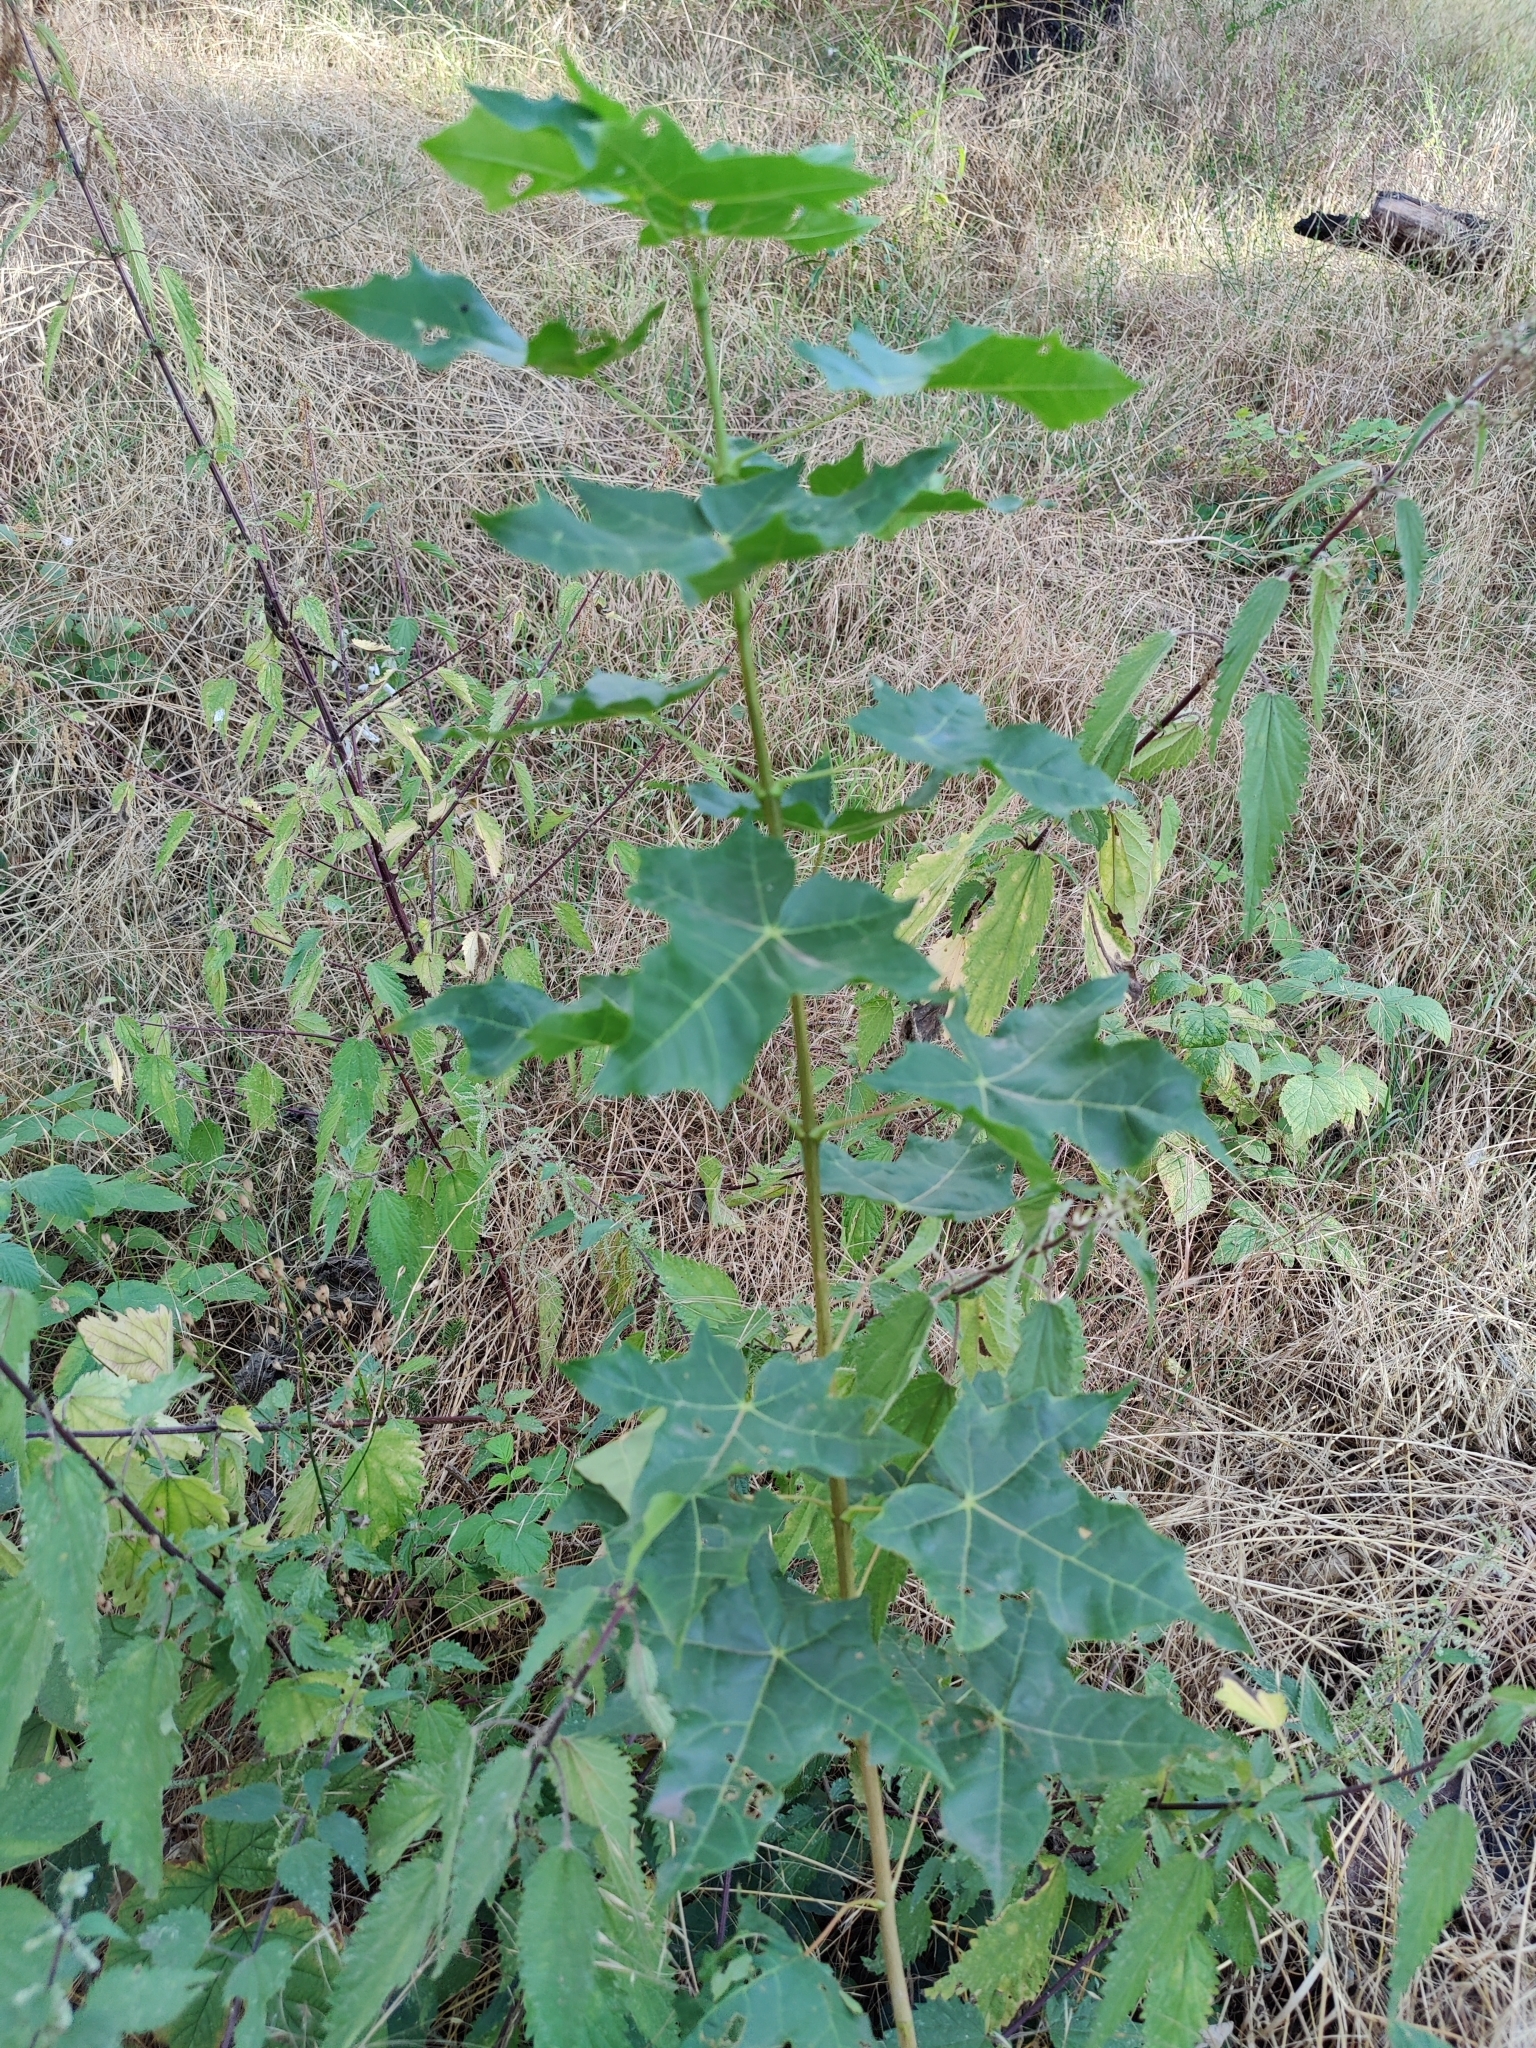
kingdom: Plantae
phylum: Tracheophyta
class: Magnoliopsida
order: Sapindales
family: Sapindaceae
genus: Acer
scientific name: Acer platanoides
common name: Norway maple
